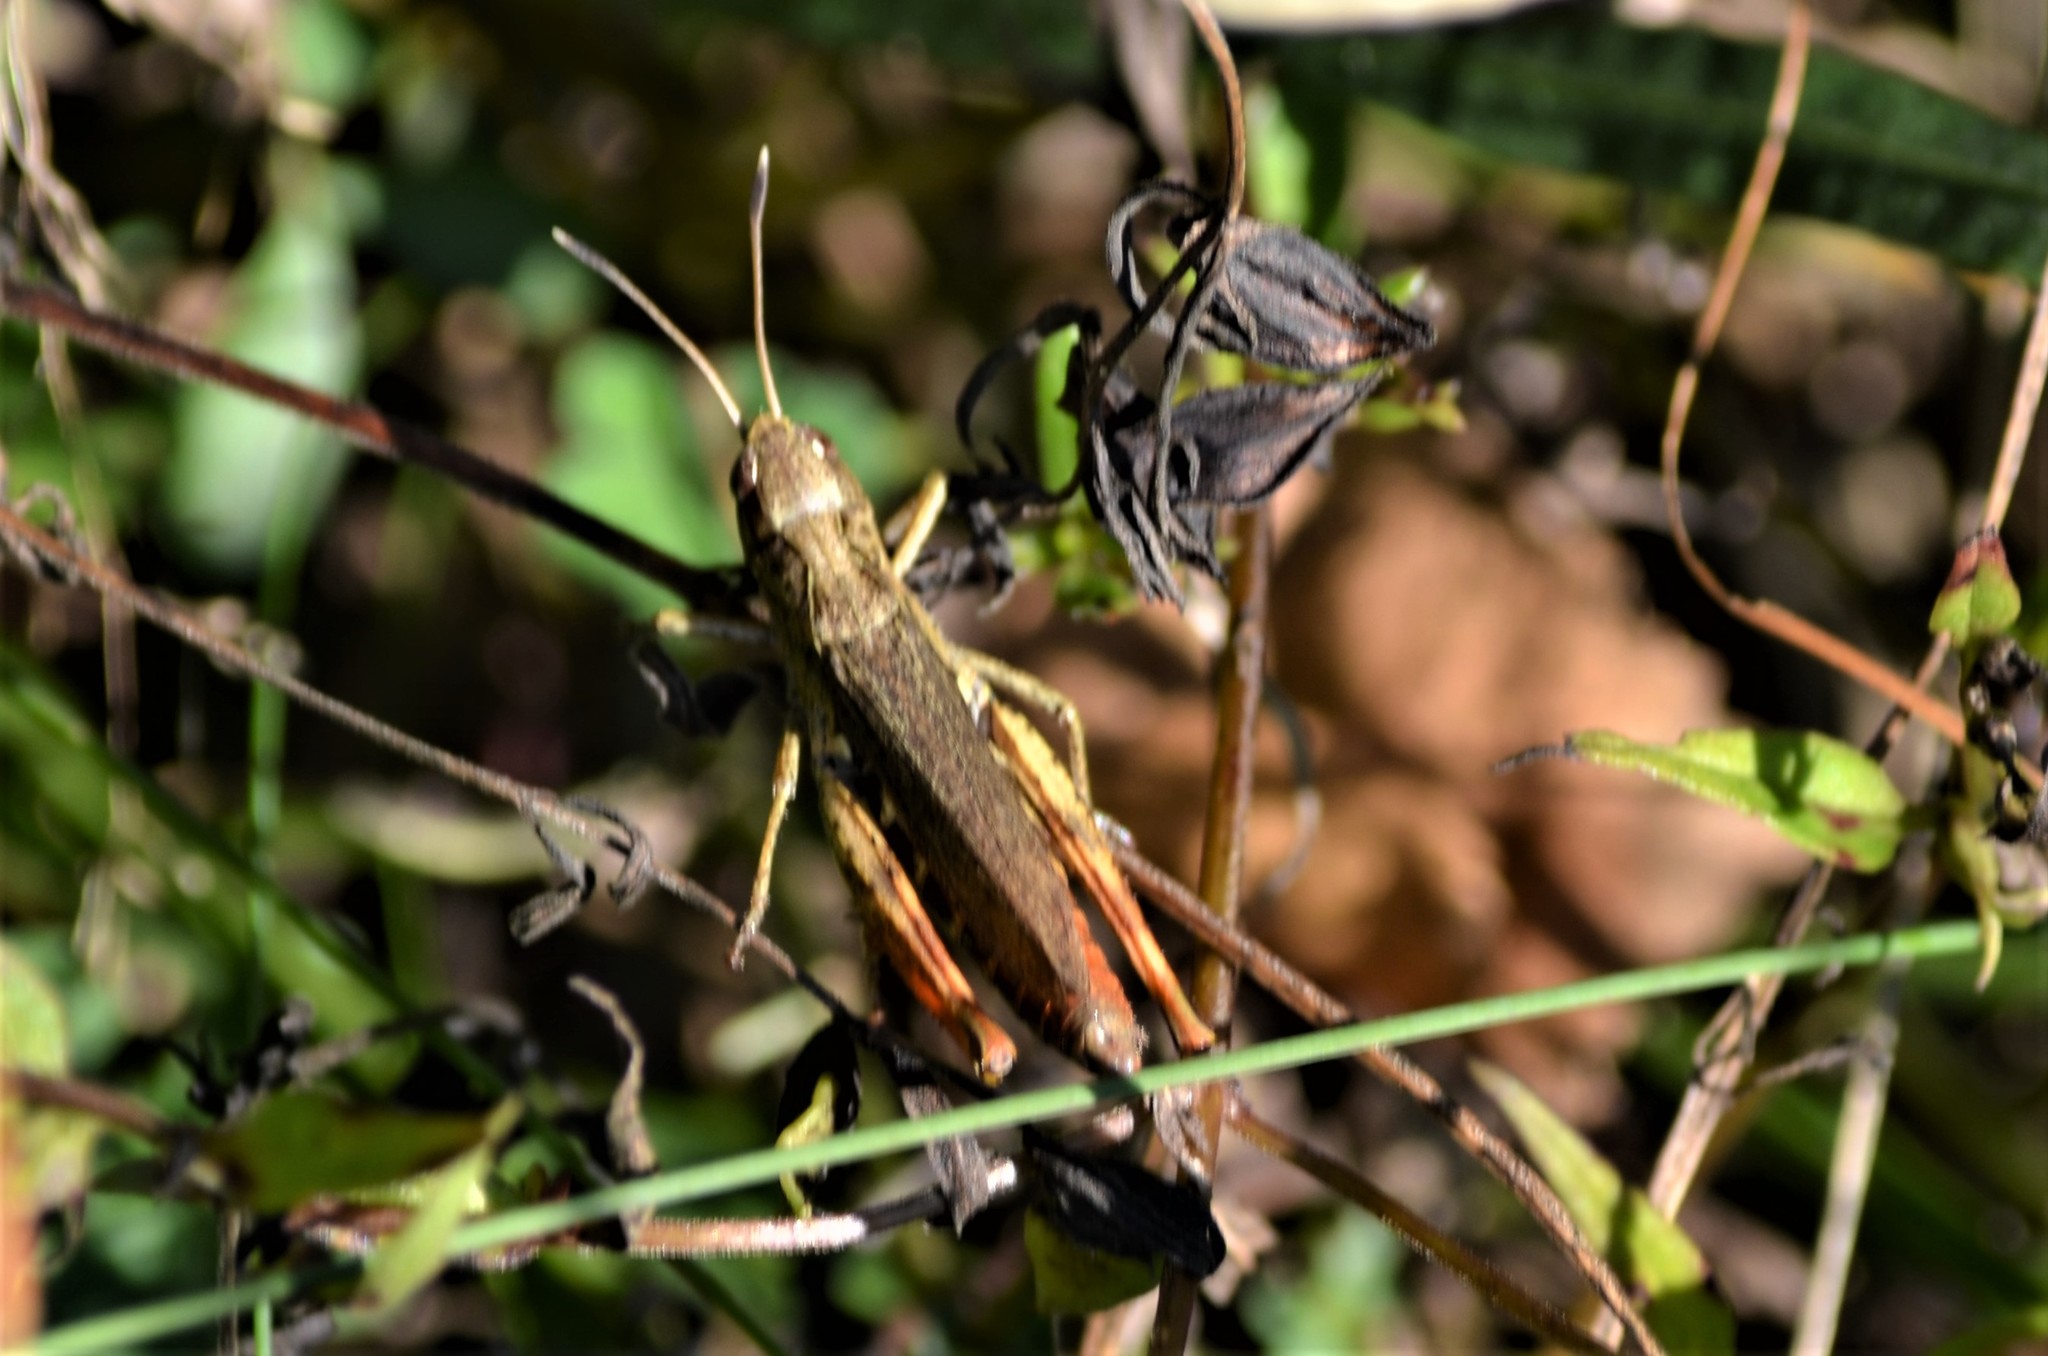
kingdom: Animalia
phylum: Arthropoda
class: Insecta
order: Orthoptera
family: Acrididae
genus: Gomphocerippus
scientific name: Gomphocerippus rufus
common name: Rufous grasshopper
